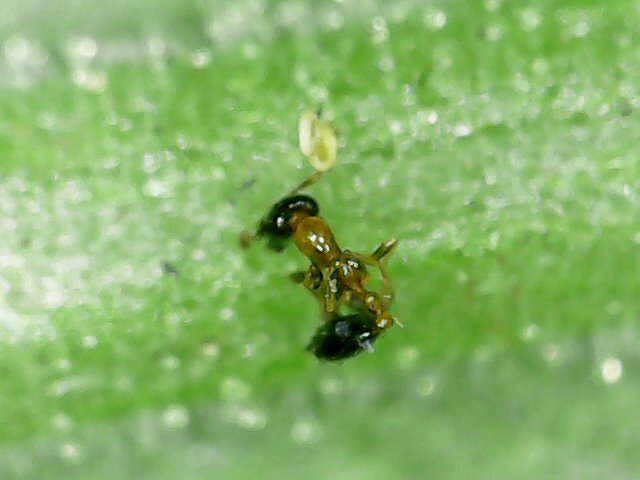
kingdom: Animalia
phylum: Arthropoda
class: Insecta
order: Hymenoptera
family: Formicidae
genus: Monomorium
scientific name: Monomorium floricola
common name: Bicolored trailing ant
